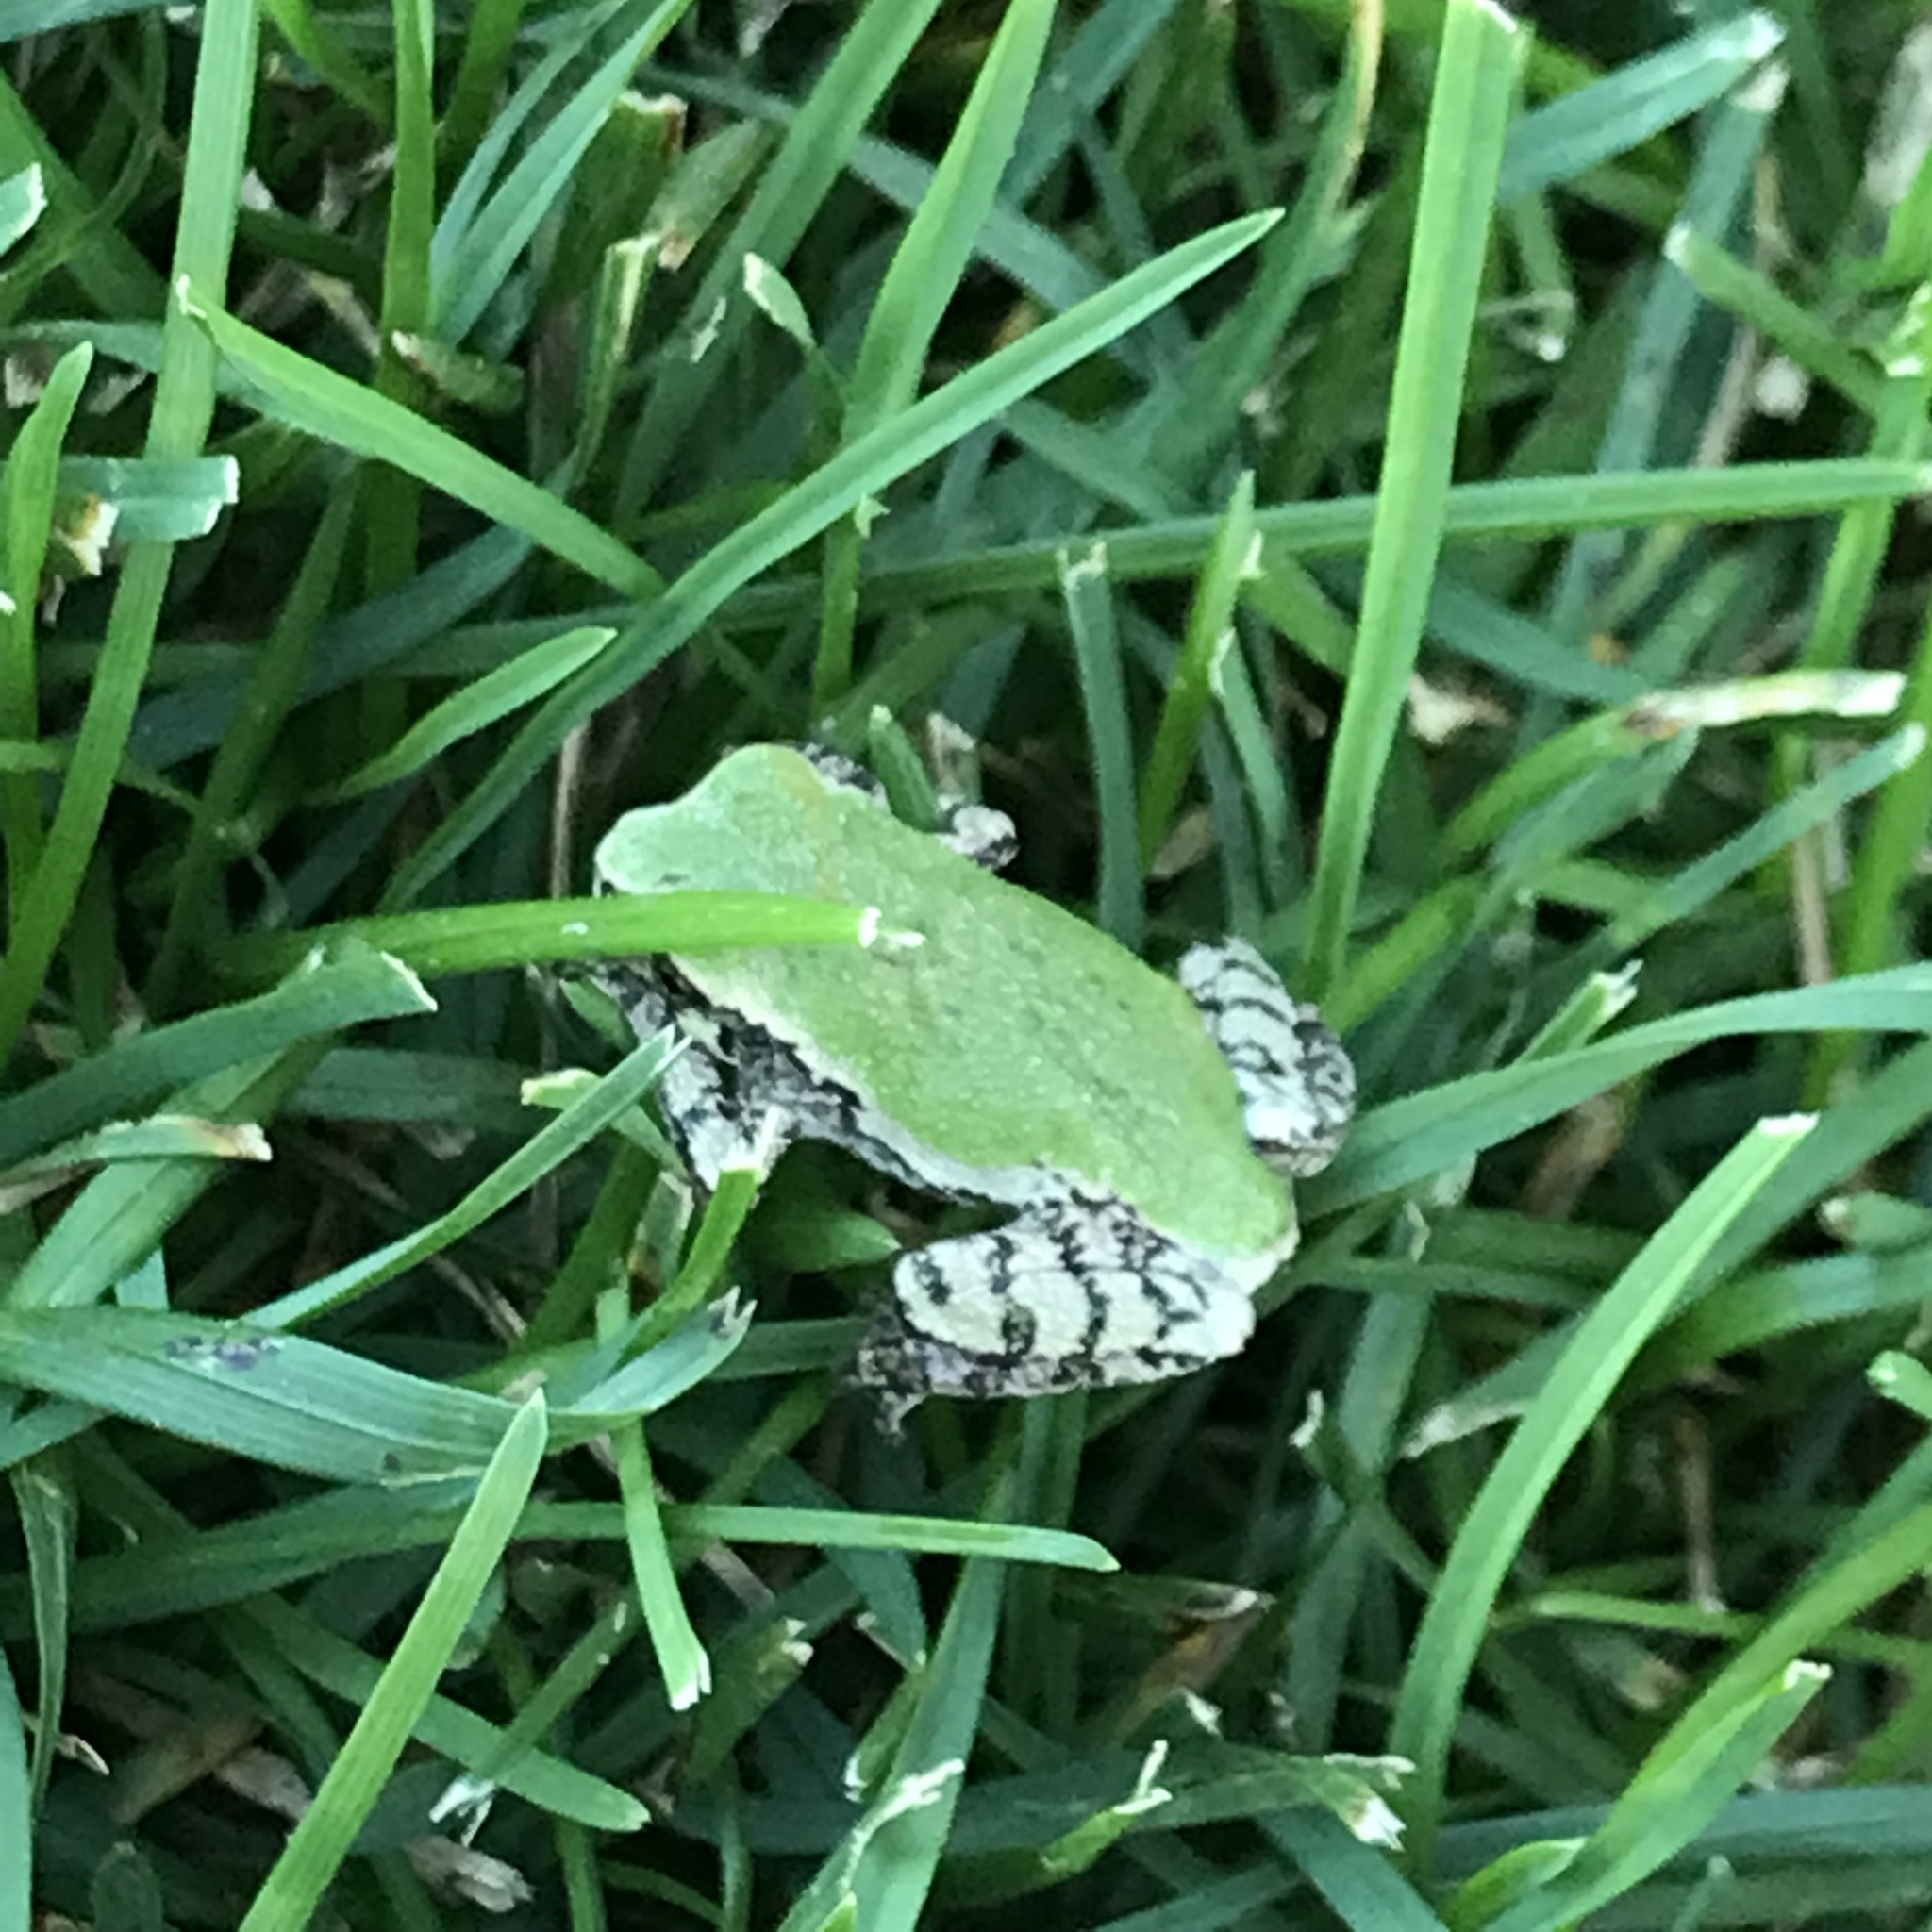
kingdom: Animalia
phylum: Chordata
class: Amphibia
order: Anura
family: Hylidae
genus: Hyla
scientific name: Hyla
